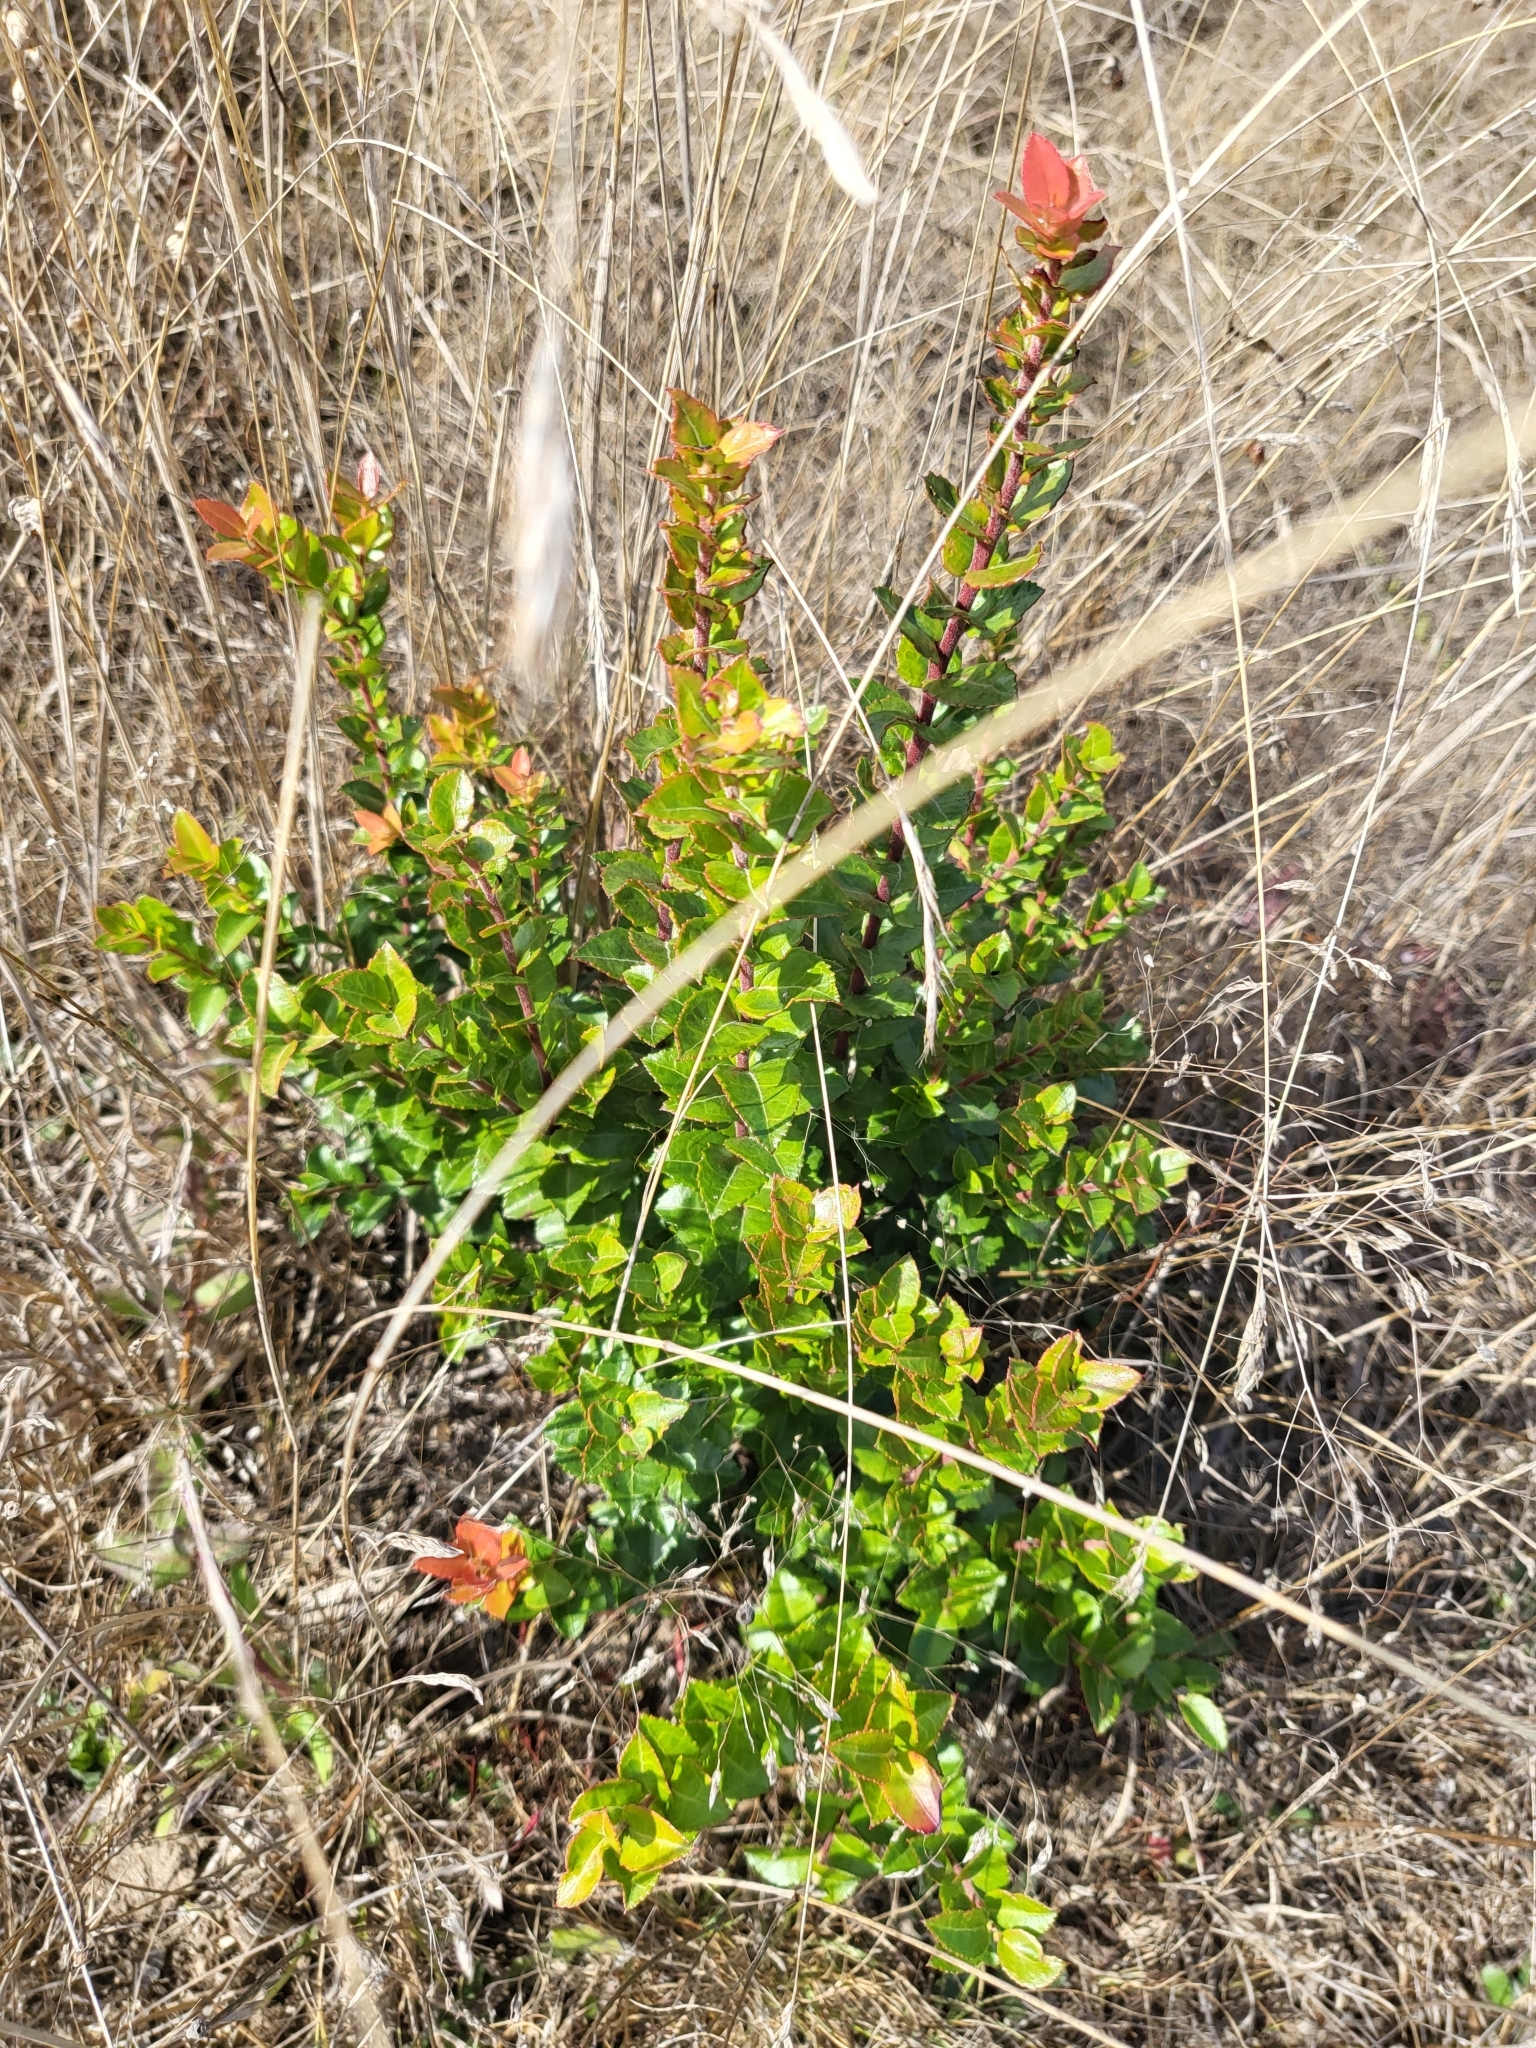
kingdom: Plantae
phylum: Tracheophyta
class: Magnoliopsida
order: Ericales
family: Ericaceae
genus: Vaccinium
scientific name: Vaccinium ovatum
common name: California-huckleberry
